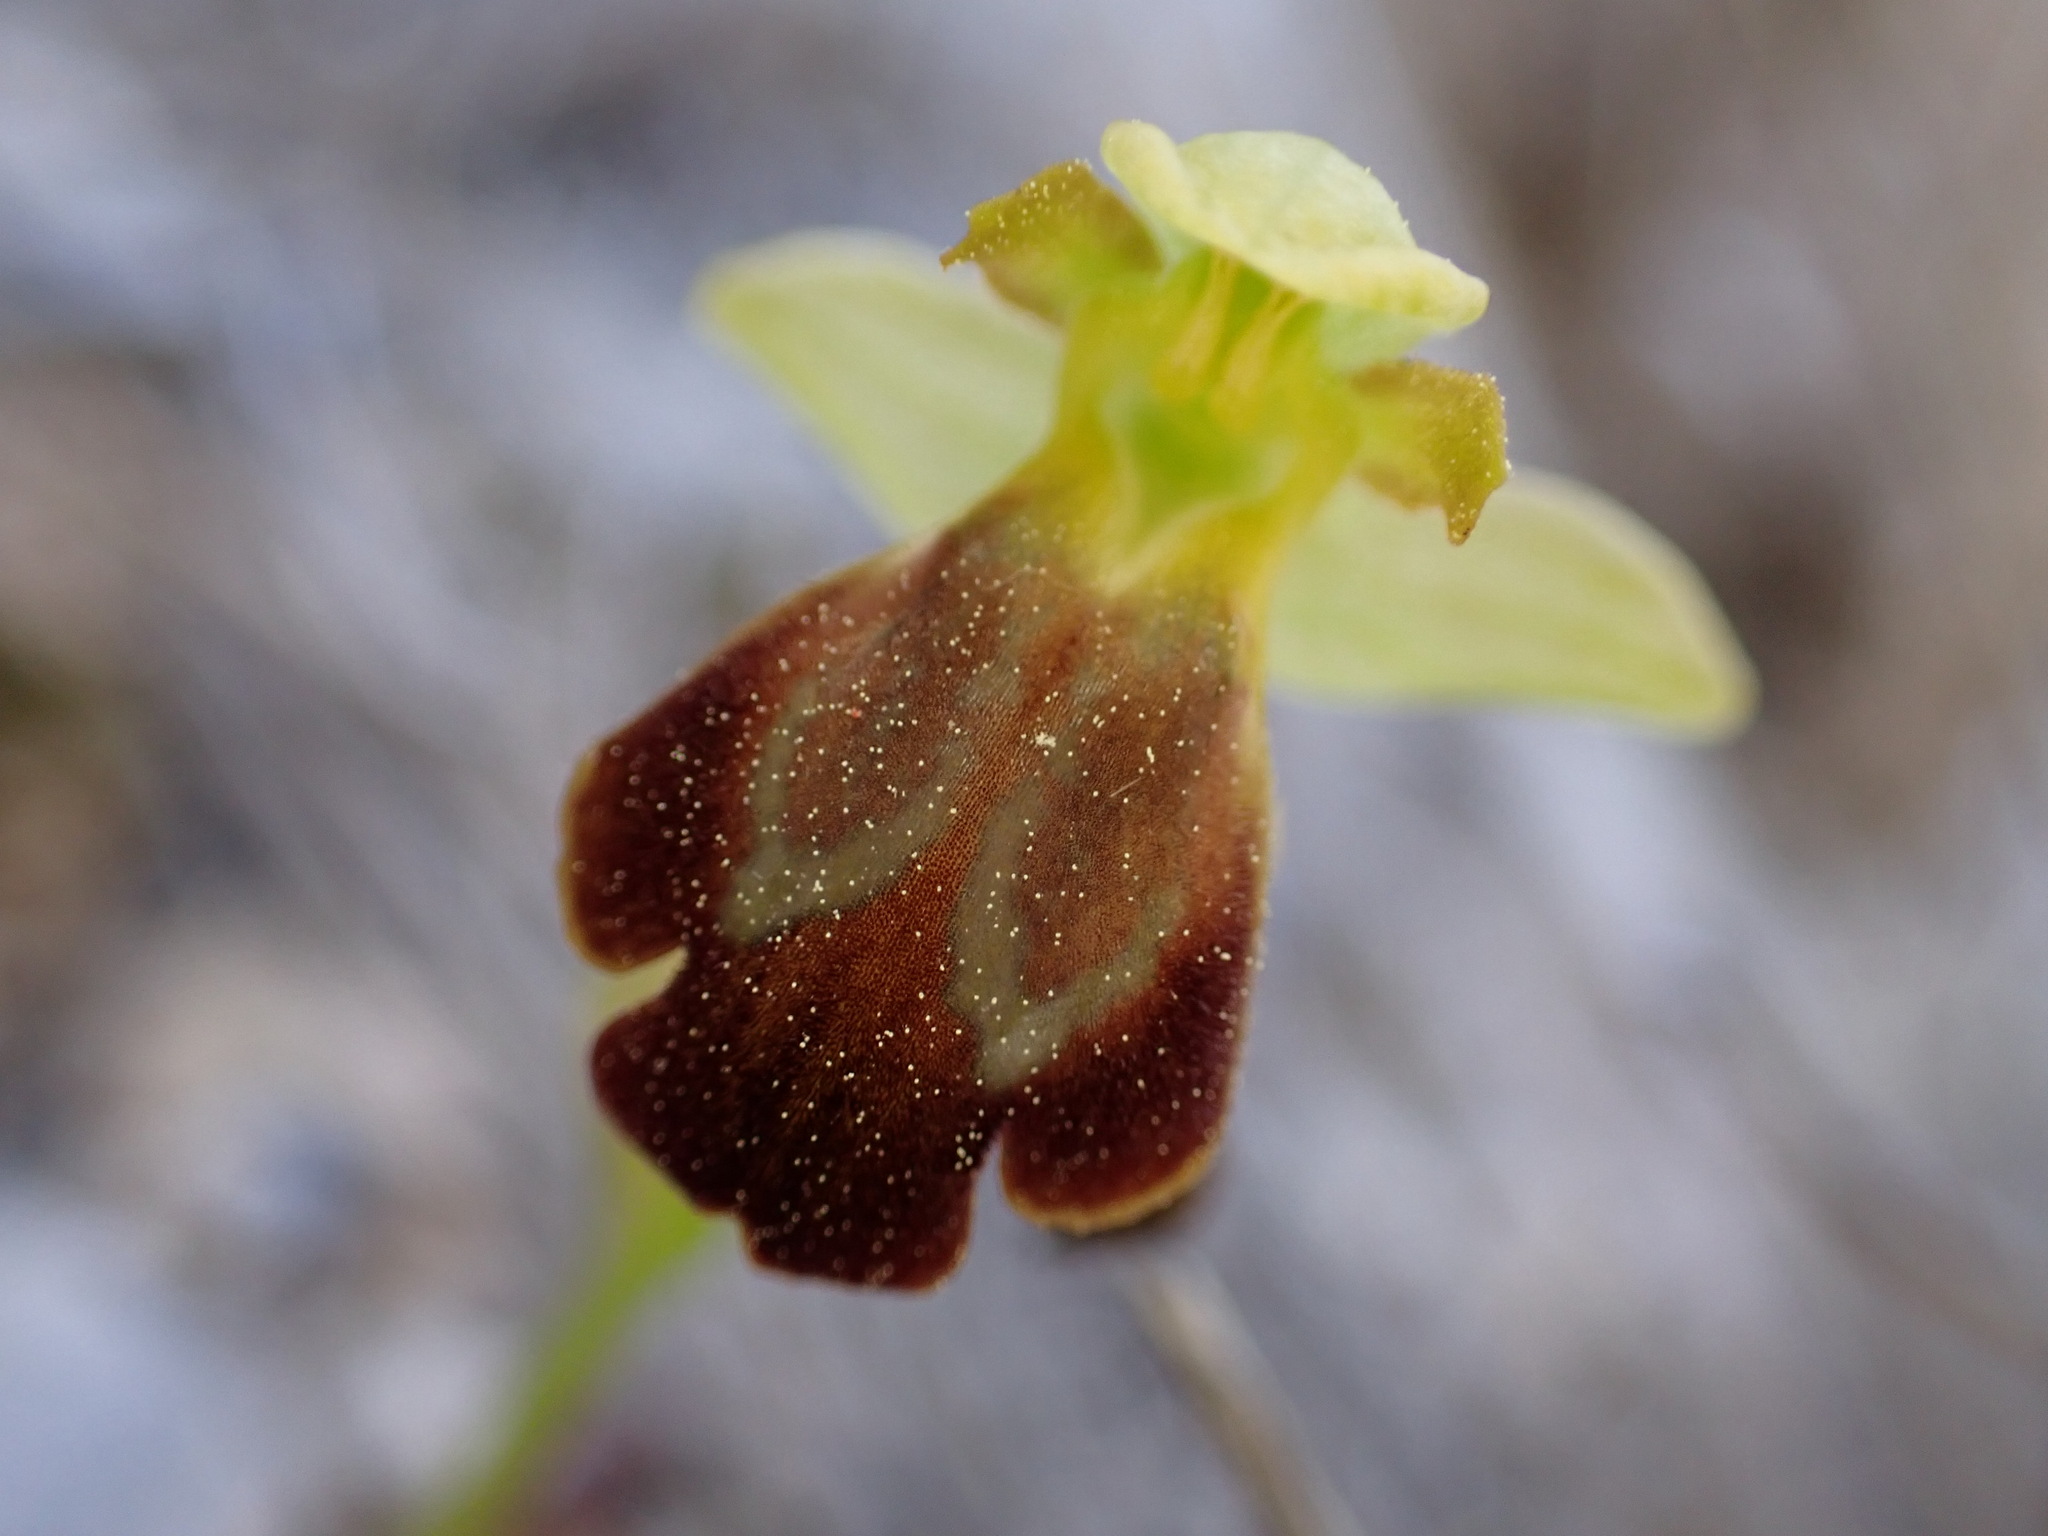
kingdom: Plantae
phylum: Tracheophyta
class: Liliopsida
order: Asparagales
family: Orchidaceae
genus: Ophrys
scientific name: Ophrys fusca
